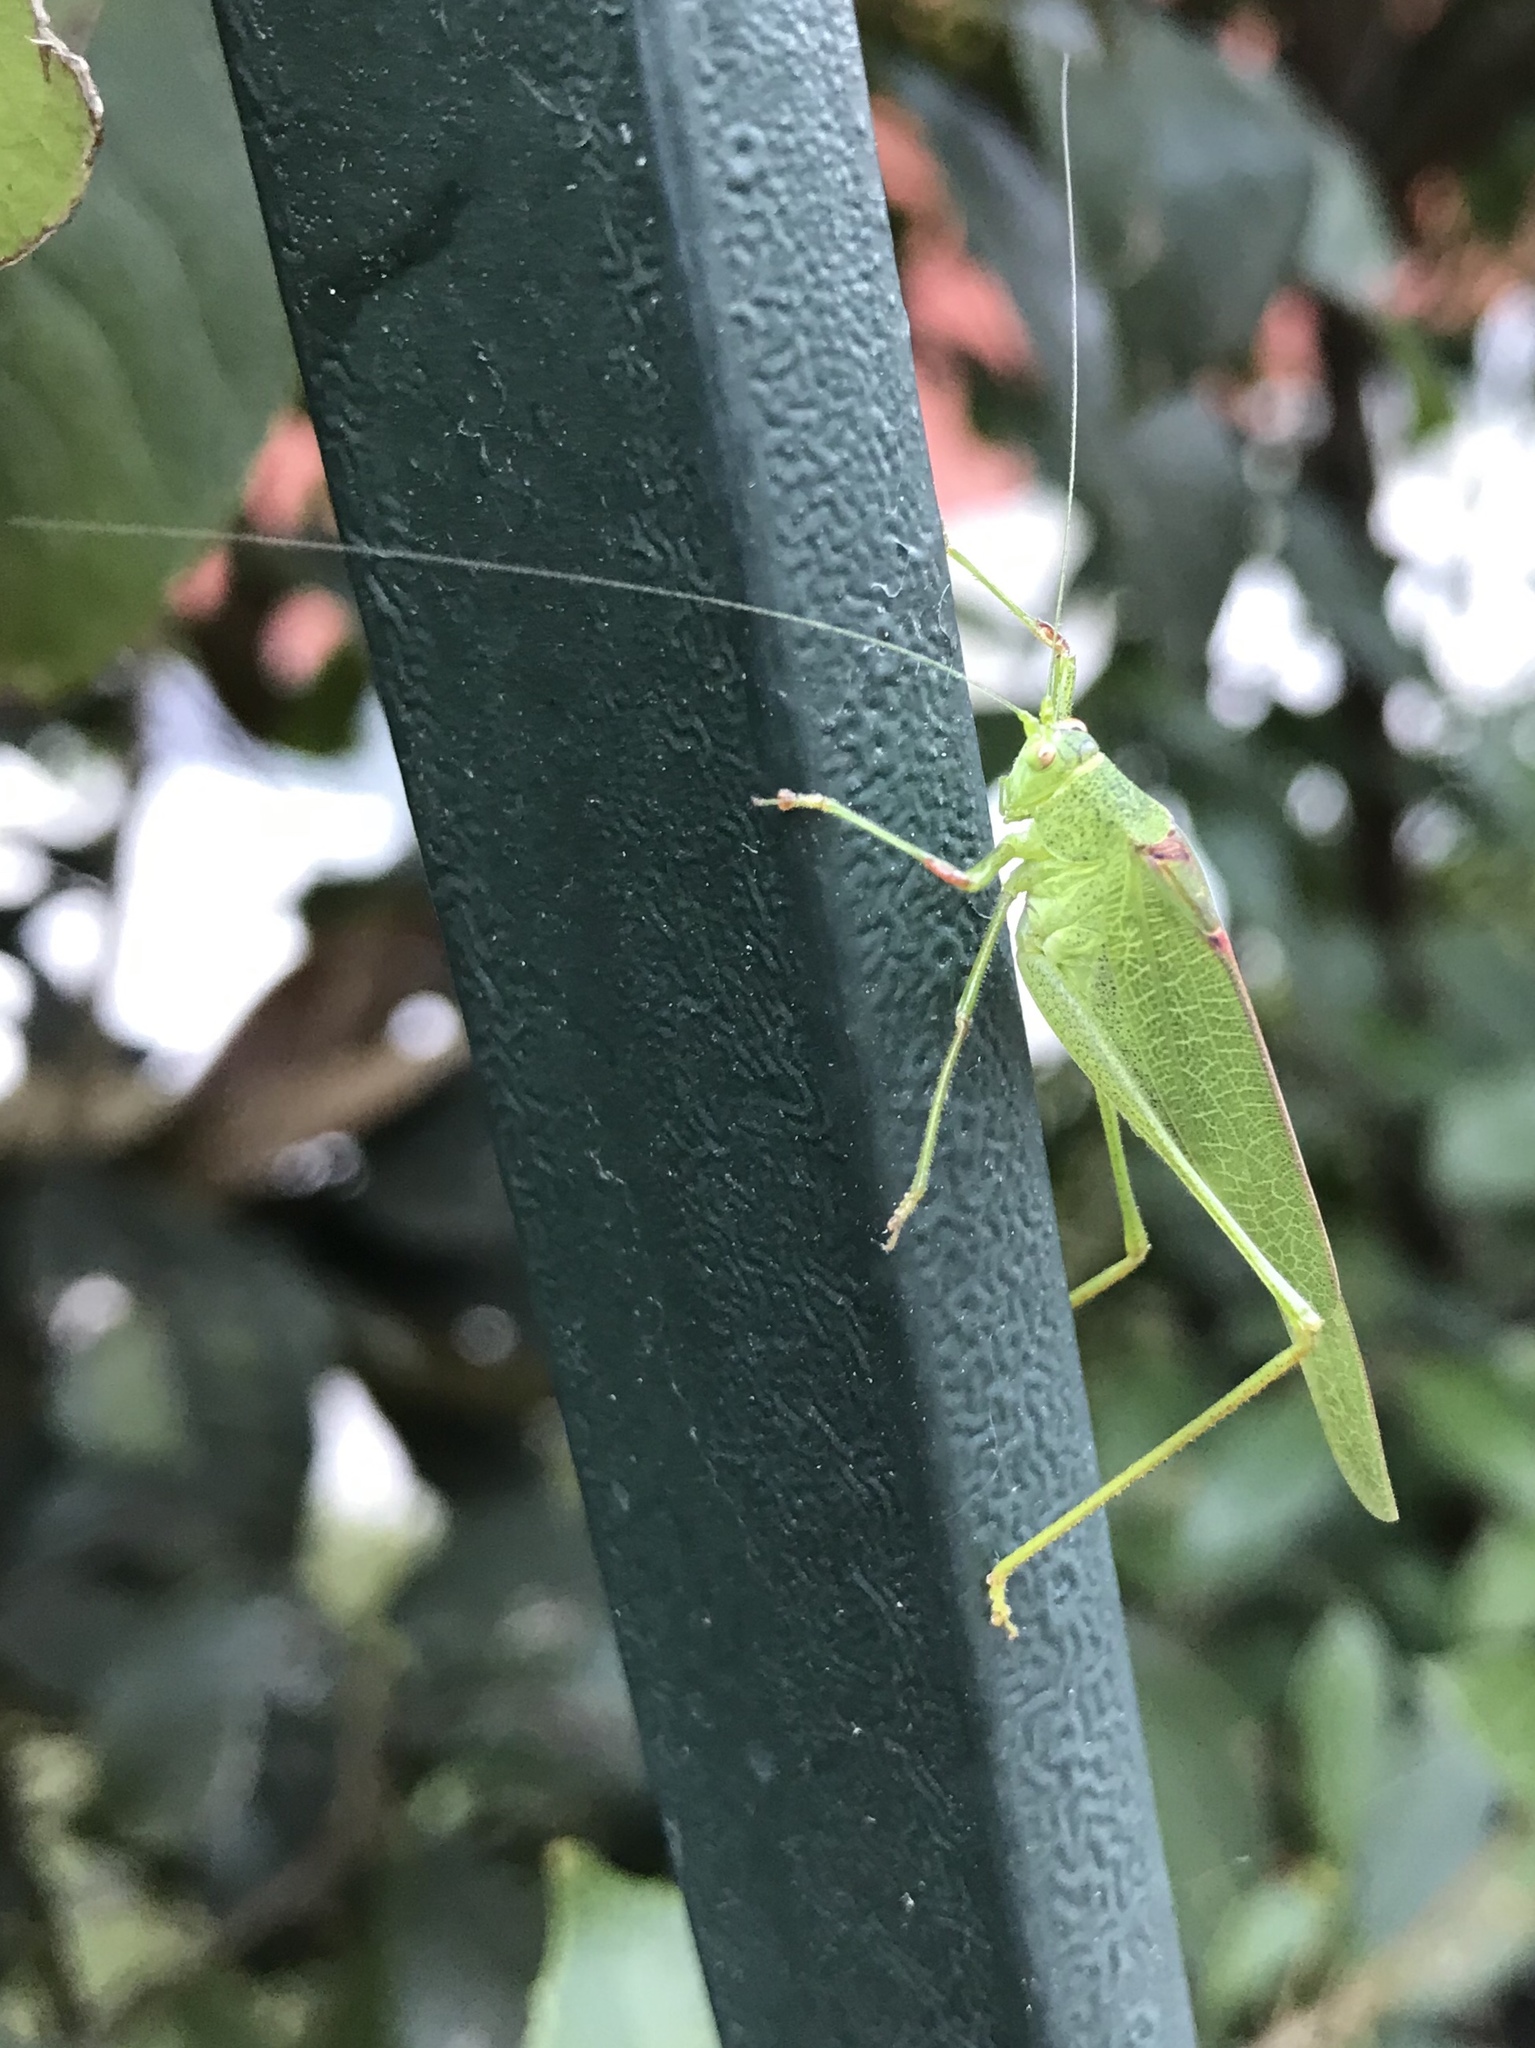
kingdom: Animalia
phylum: Arthropoda
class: Insecta
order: Orthoptera
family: Tettigoniidae
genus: Phaneroptera
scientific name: Phaneroptera nana
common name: Southern sickle bush-cricket
